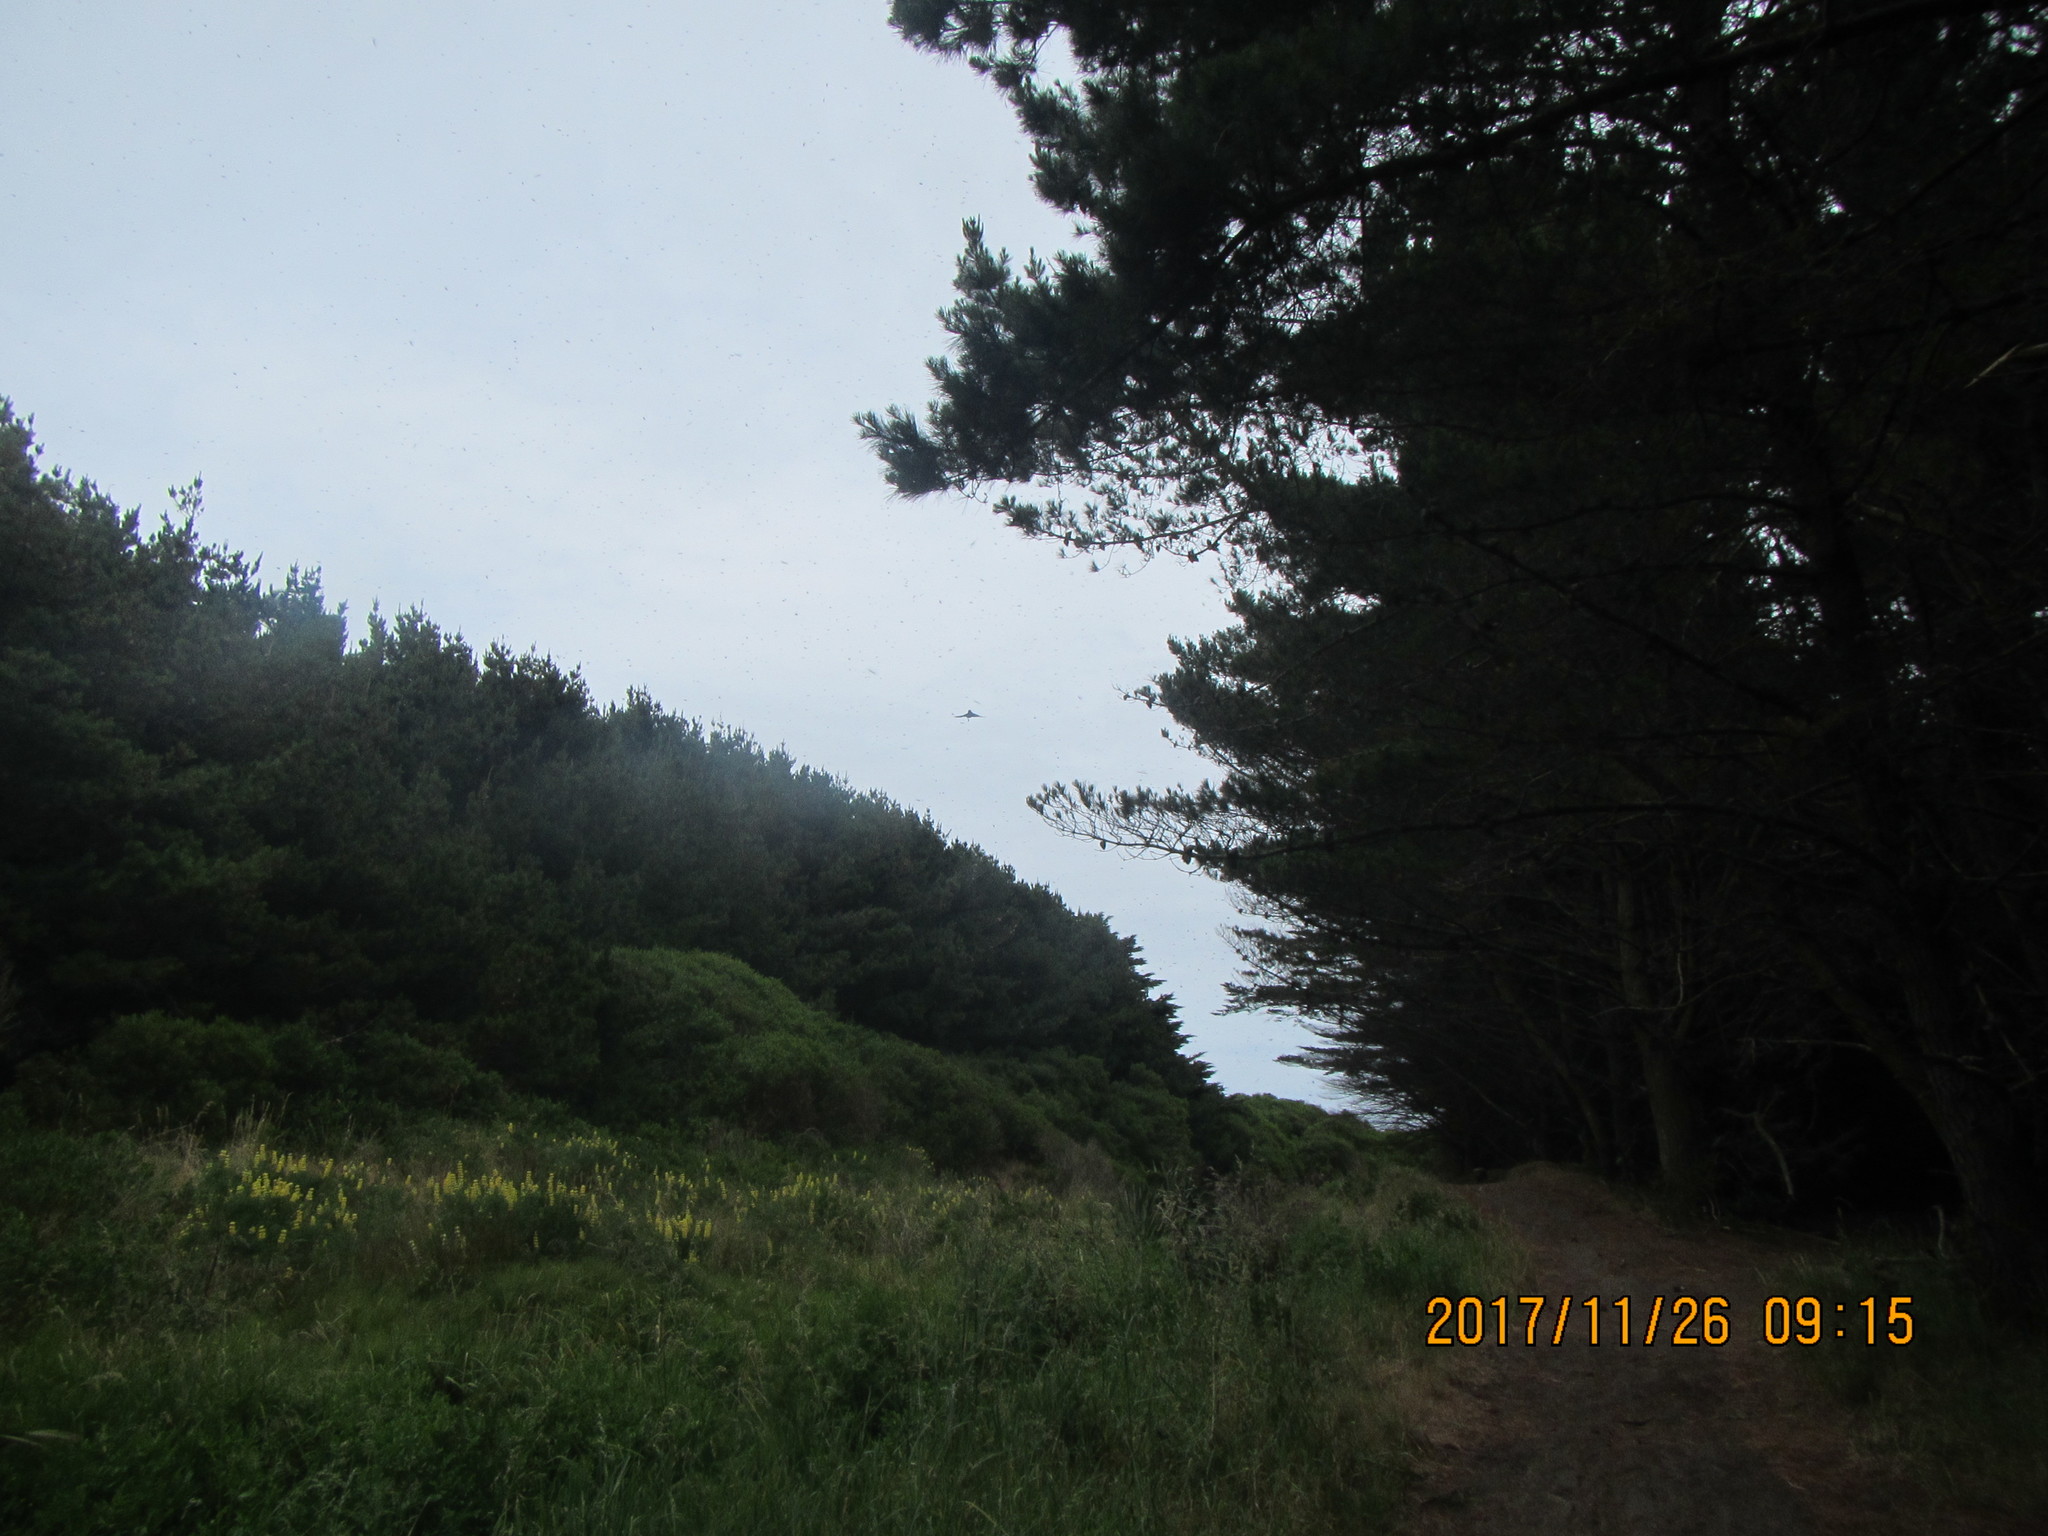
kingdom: Animalia
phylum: Chordata
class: Aves
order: Passeriformes
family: Rhipiduridae
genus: Rhipidura
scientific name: Rhipidura fuliginosa
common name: New zealand fantail
